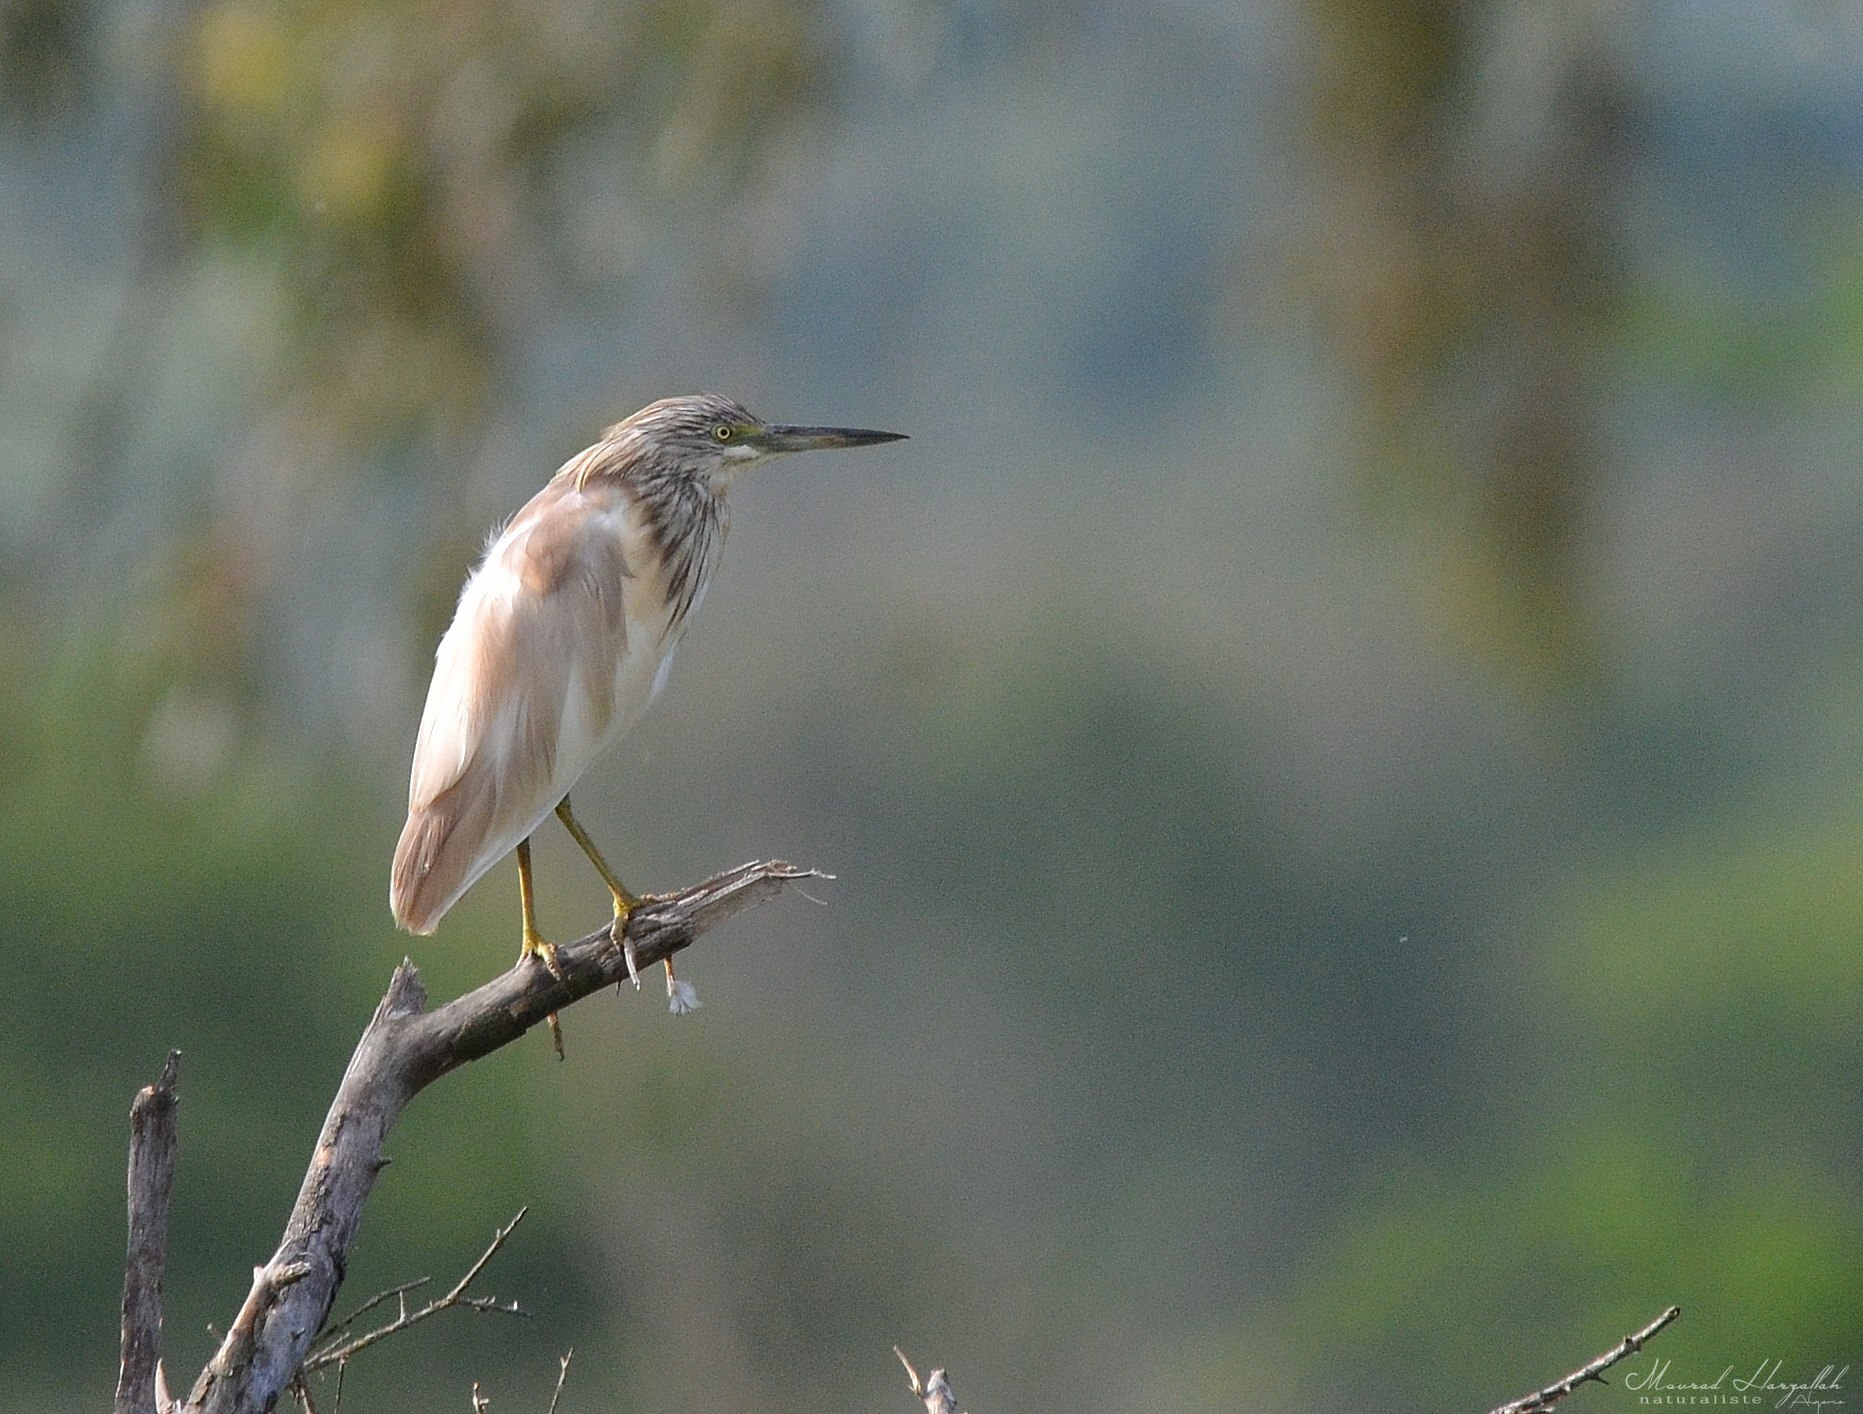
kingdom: Animalia
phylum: Chordata
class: Aves
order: Pelecaniformes
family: Ardeidae
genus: Ardeola
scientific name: Ardeola ralloides
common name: Squacco heron
